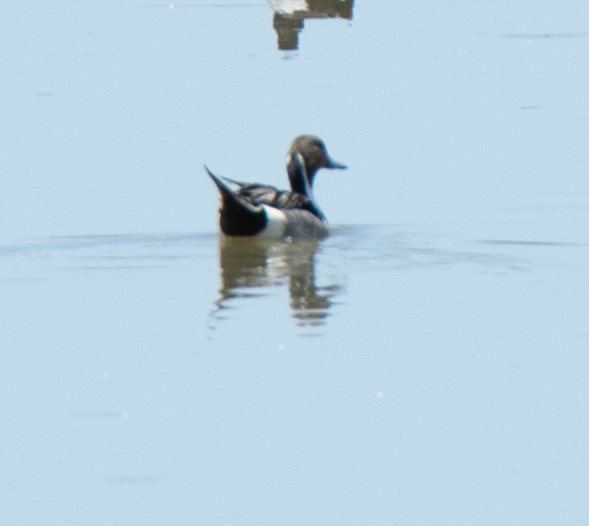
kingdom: Animalia
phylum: Chordata
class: Aves
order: Anseriformes
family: Anatidae
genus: Anas
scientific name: Anas acuta
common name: Northern pintail
